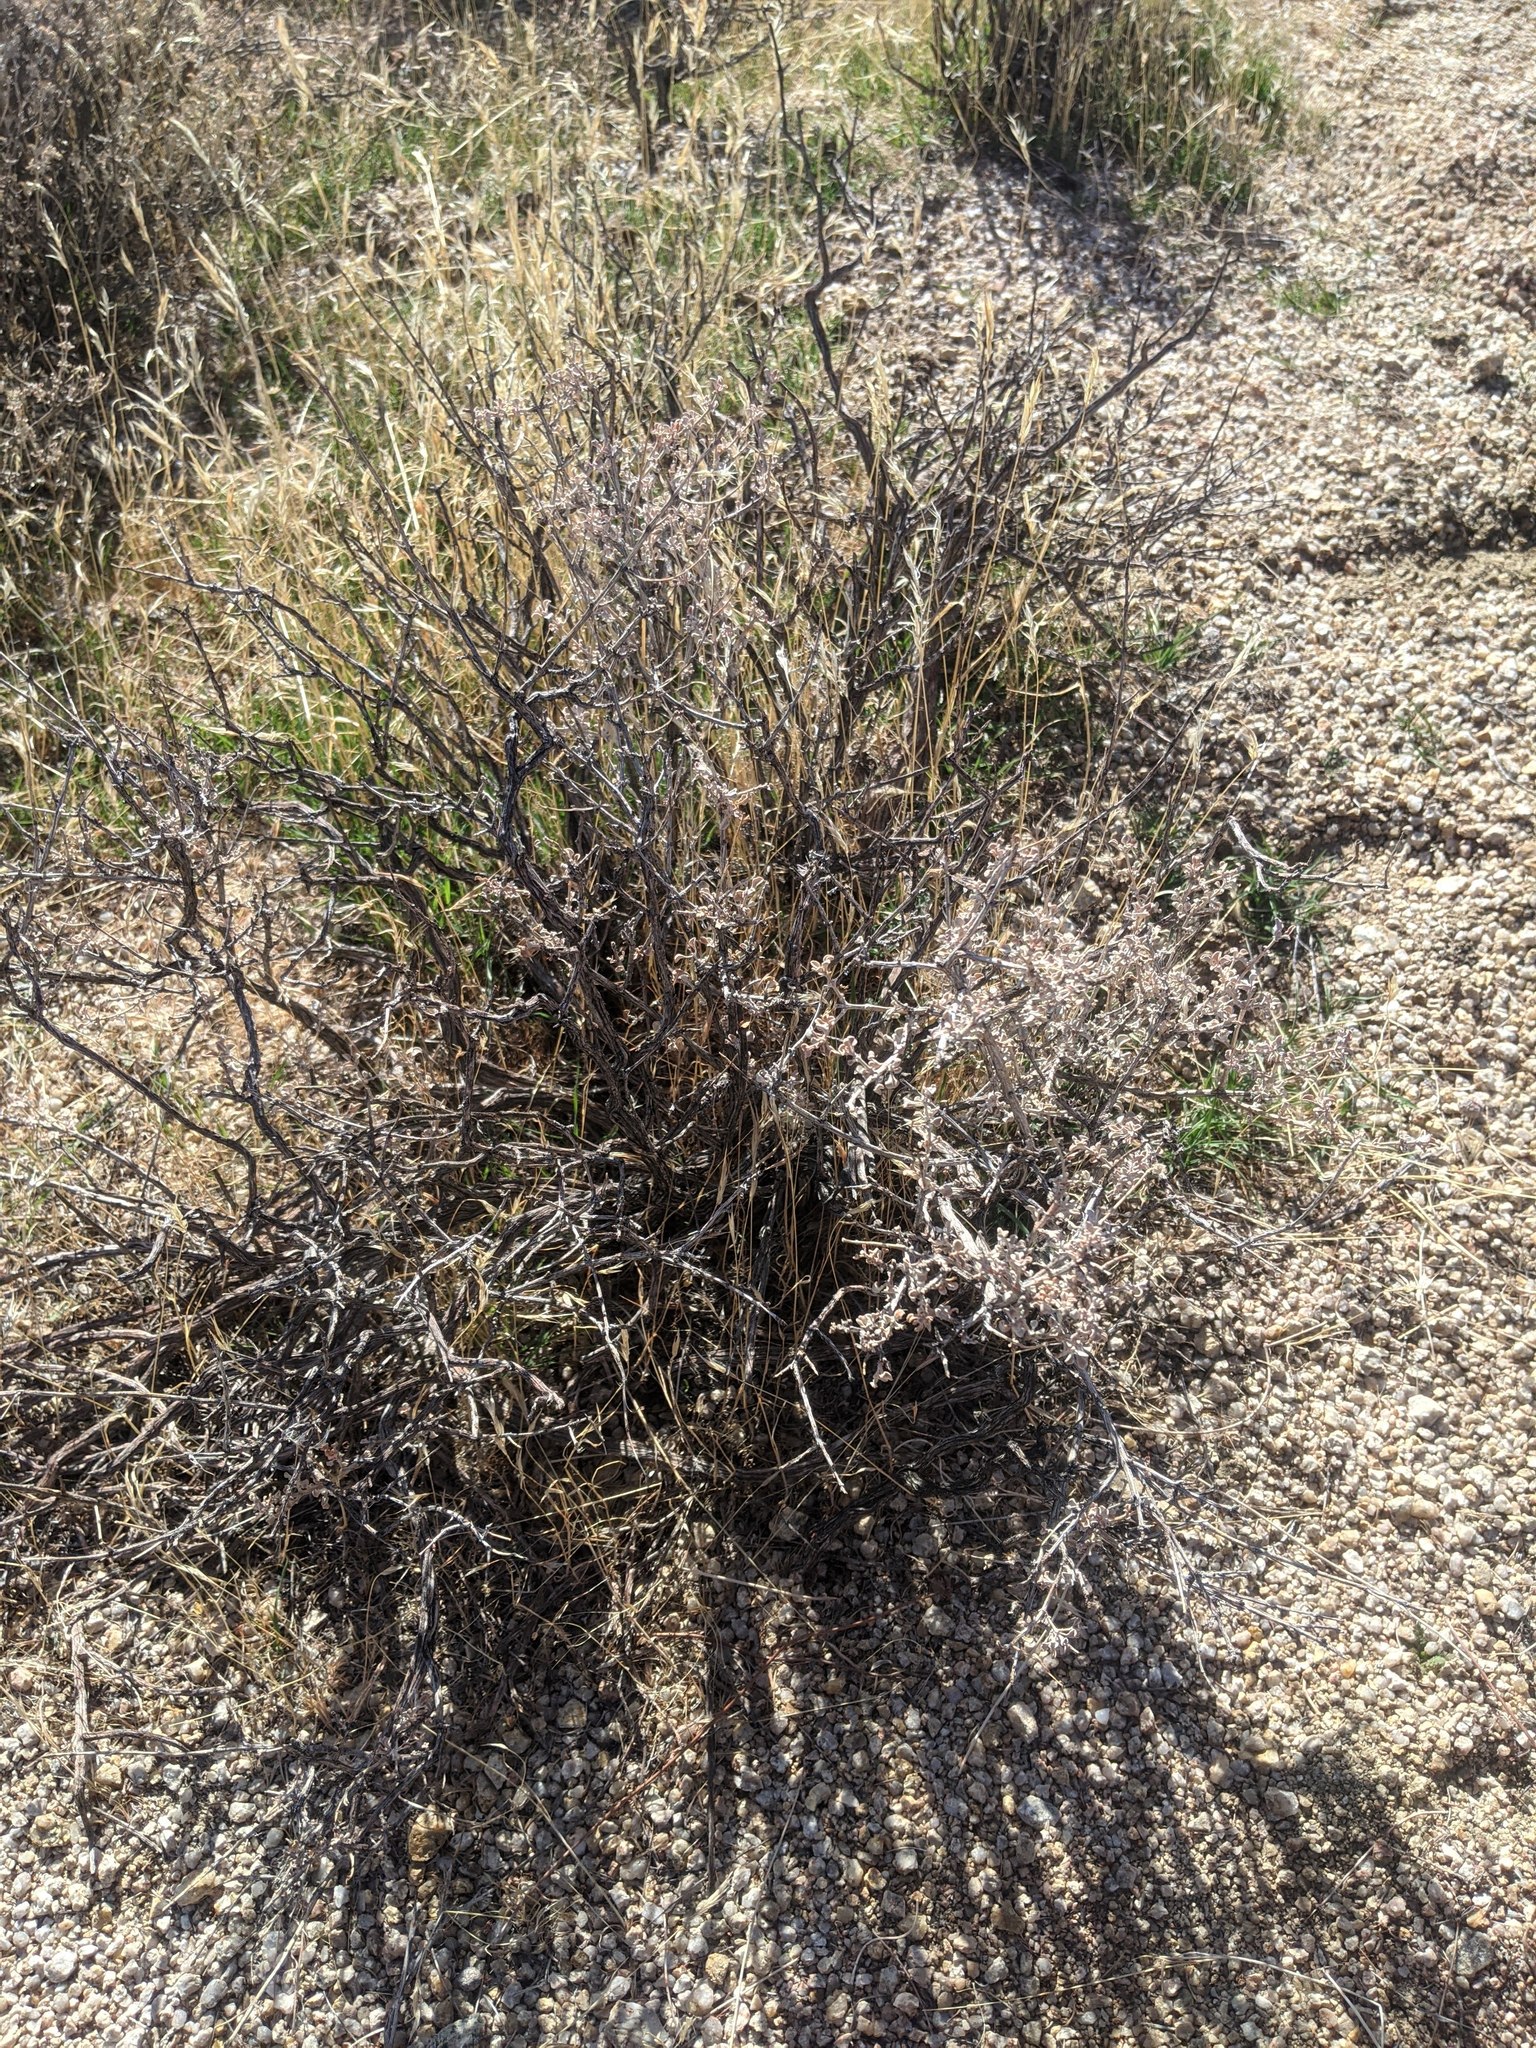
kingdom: Plantae
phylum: Tracheophyta
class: Magnoliopsida
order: Lamiales
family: Lamiaceae
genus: Salvia
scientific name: Salvia dorrii
